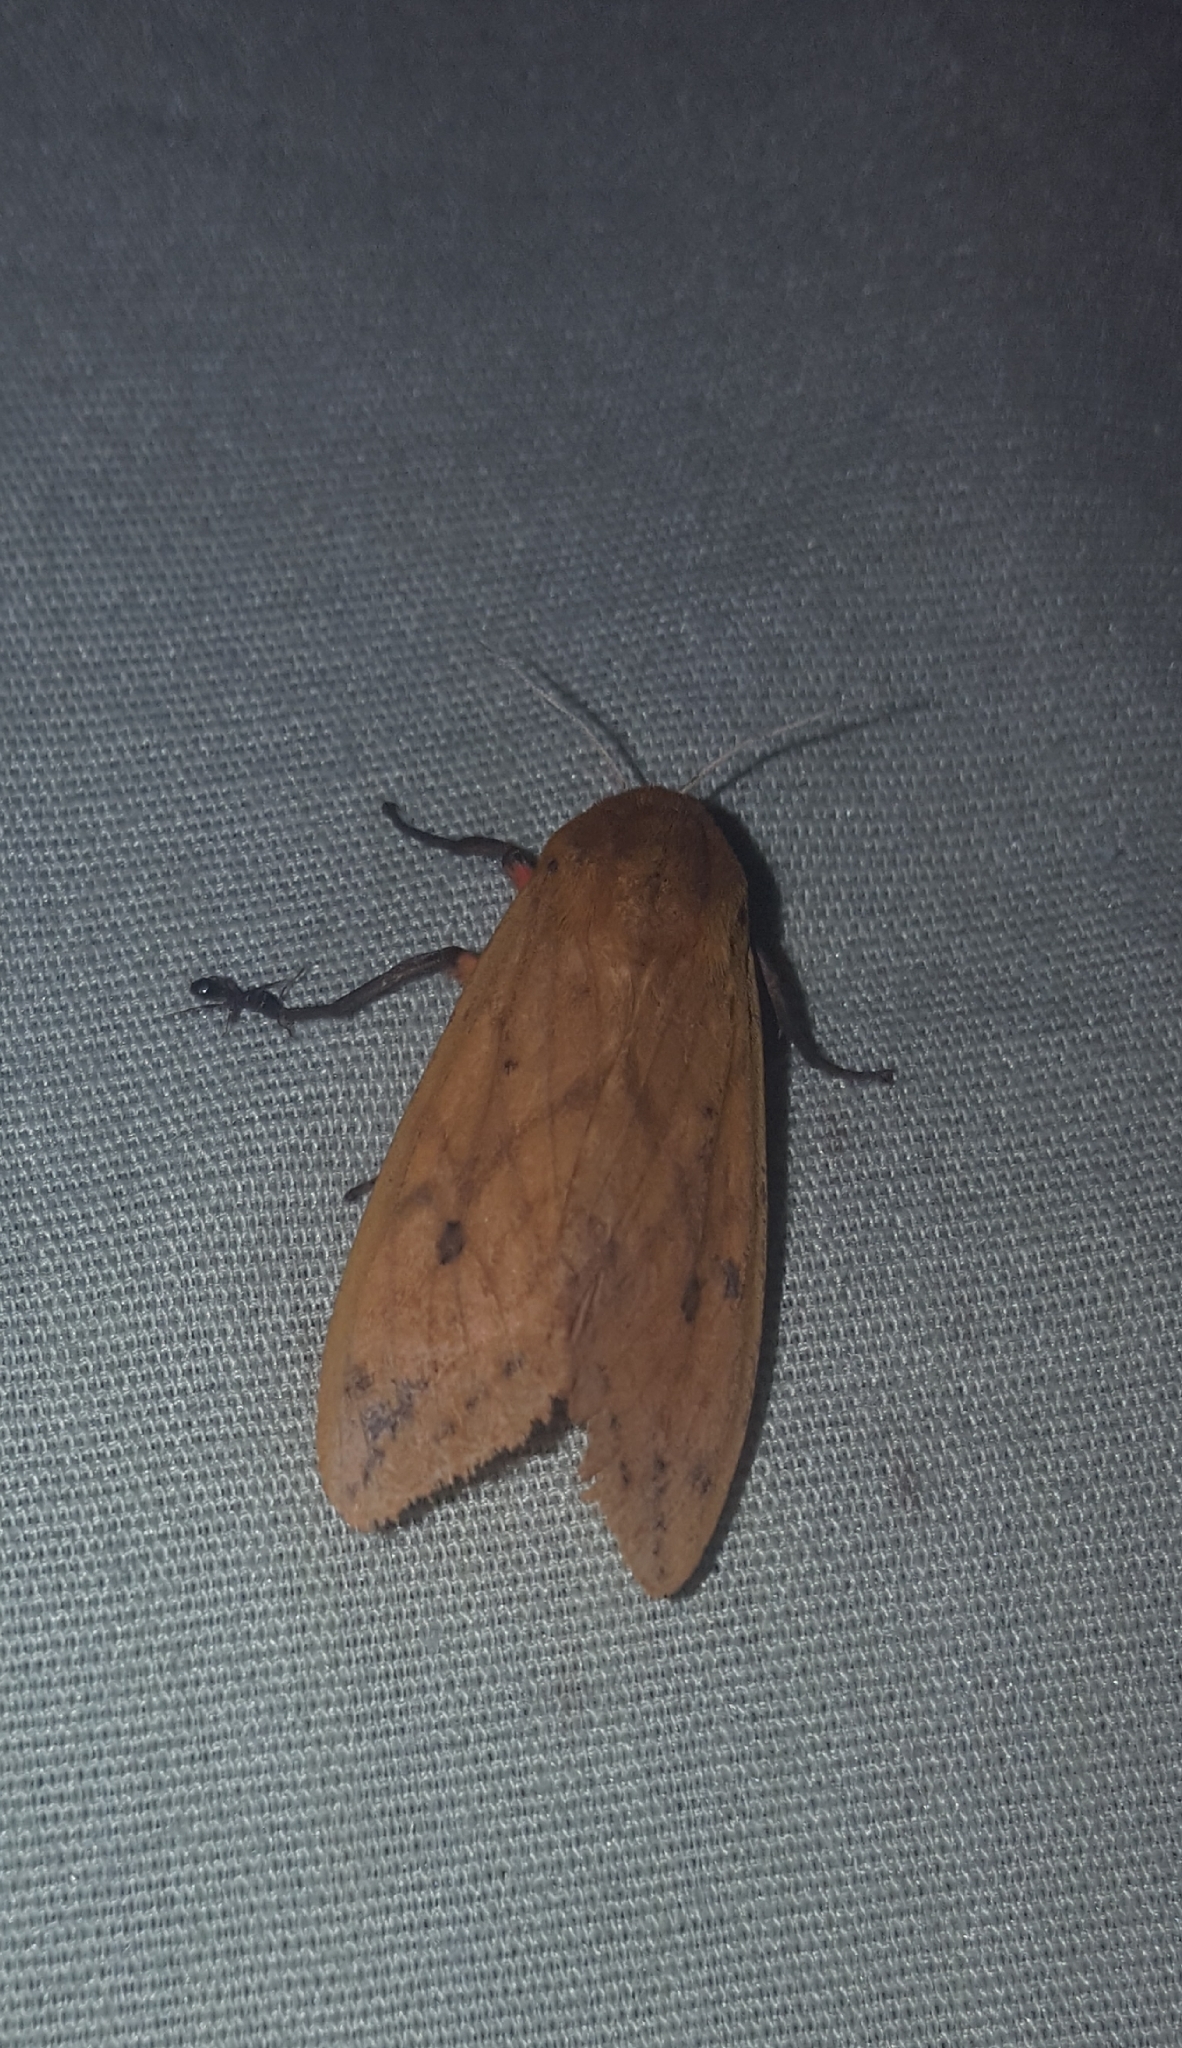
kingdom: Animalia
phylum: Arthropoda
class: Insecta
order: Lepidoptera
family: Erebidae
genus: Pyrrharctia
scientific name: Pyrrharctia isabella
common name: Isabella tiger moth
